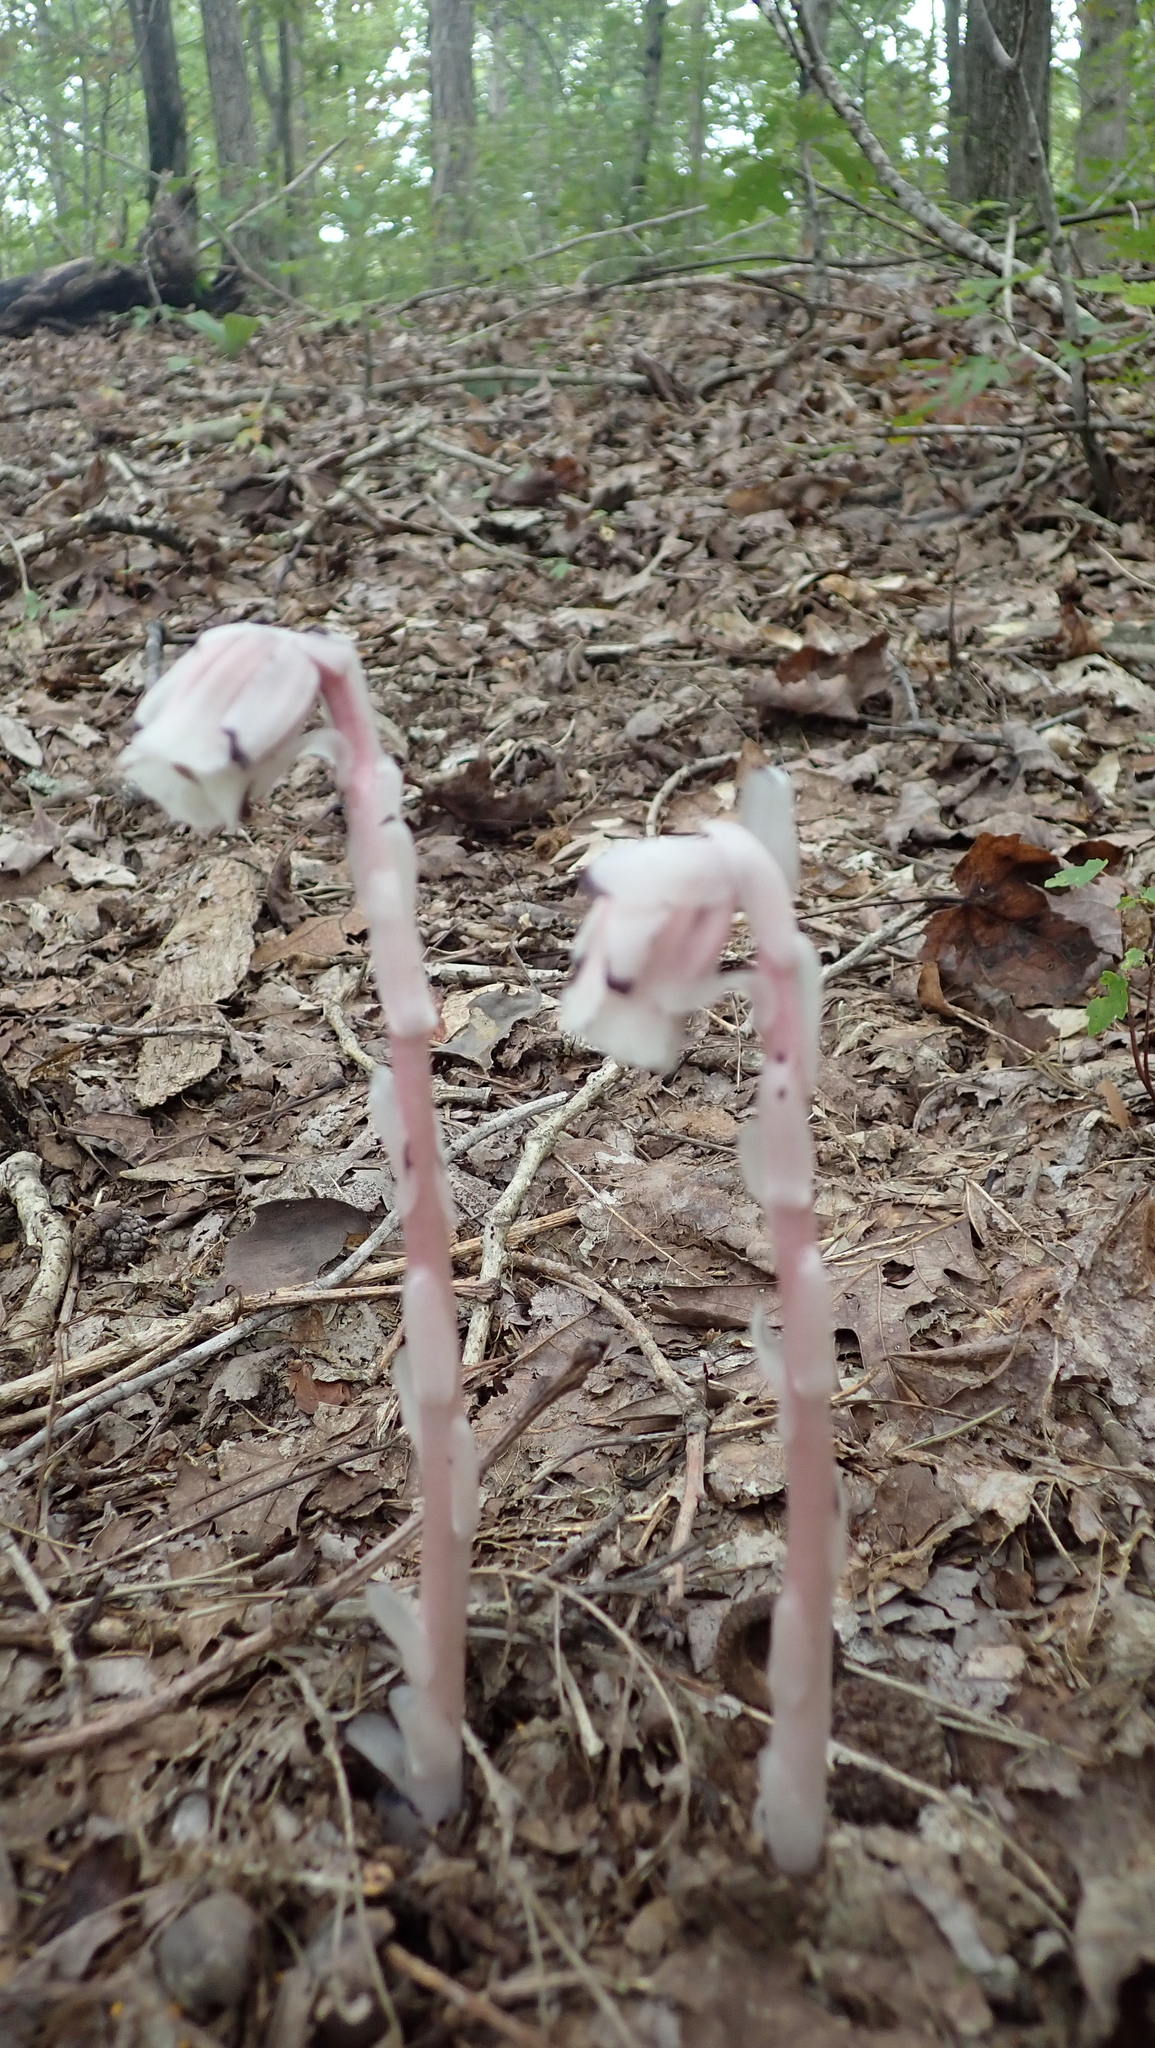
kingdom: Plantae
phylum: Tracheophyta
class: Magnoliopsida
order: Ericales
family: Ericaceae
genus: Monotropa
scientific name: Monotropa uniflora
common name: Convulsion root
